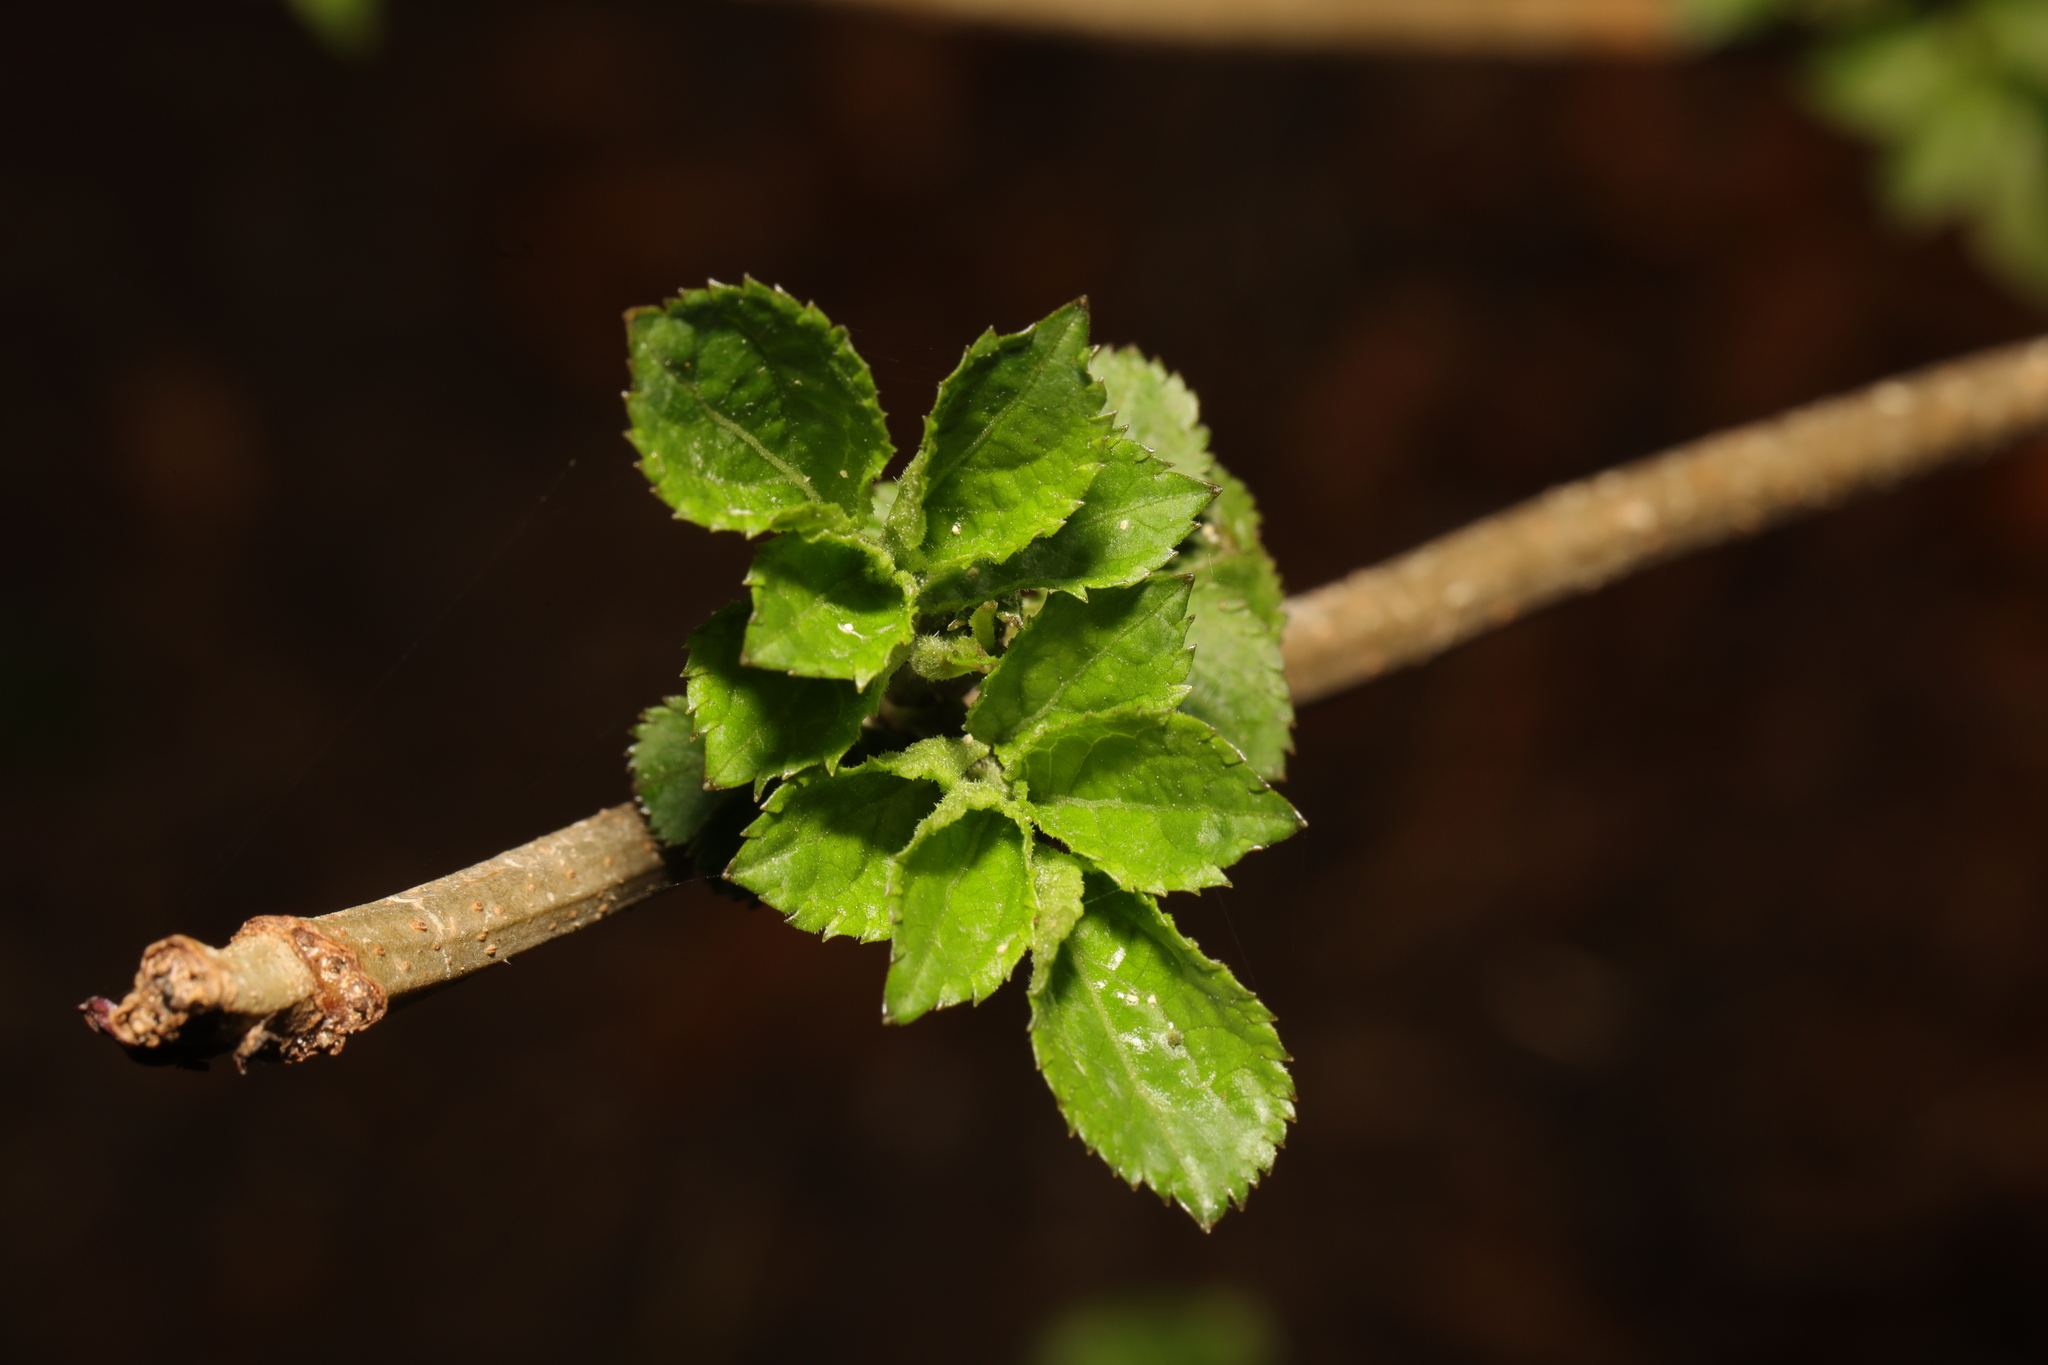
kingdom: Plantae
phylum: Tracheophyta
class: Magnoliopsida
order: Dipsacales
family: Viburnaceae
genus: Sambucus
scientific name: Sambucus nigra
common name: Elder
